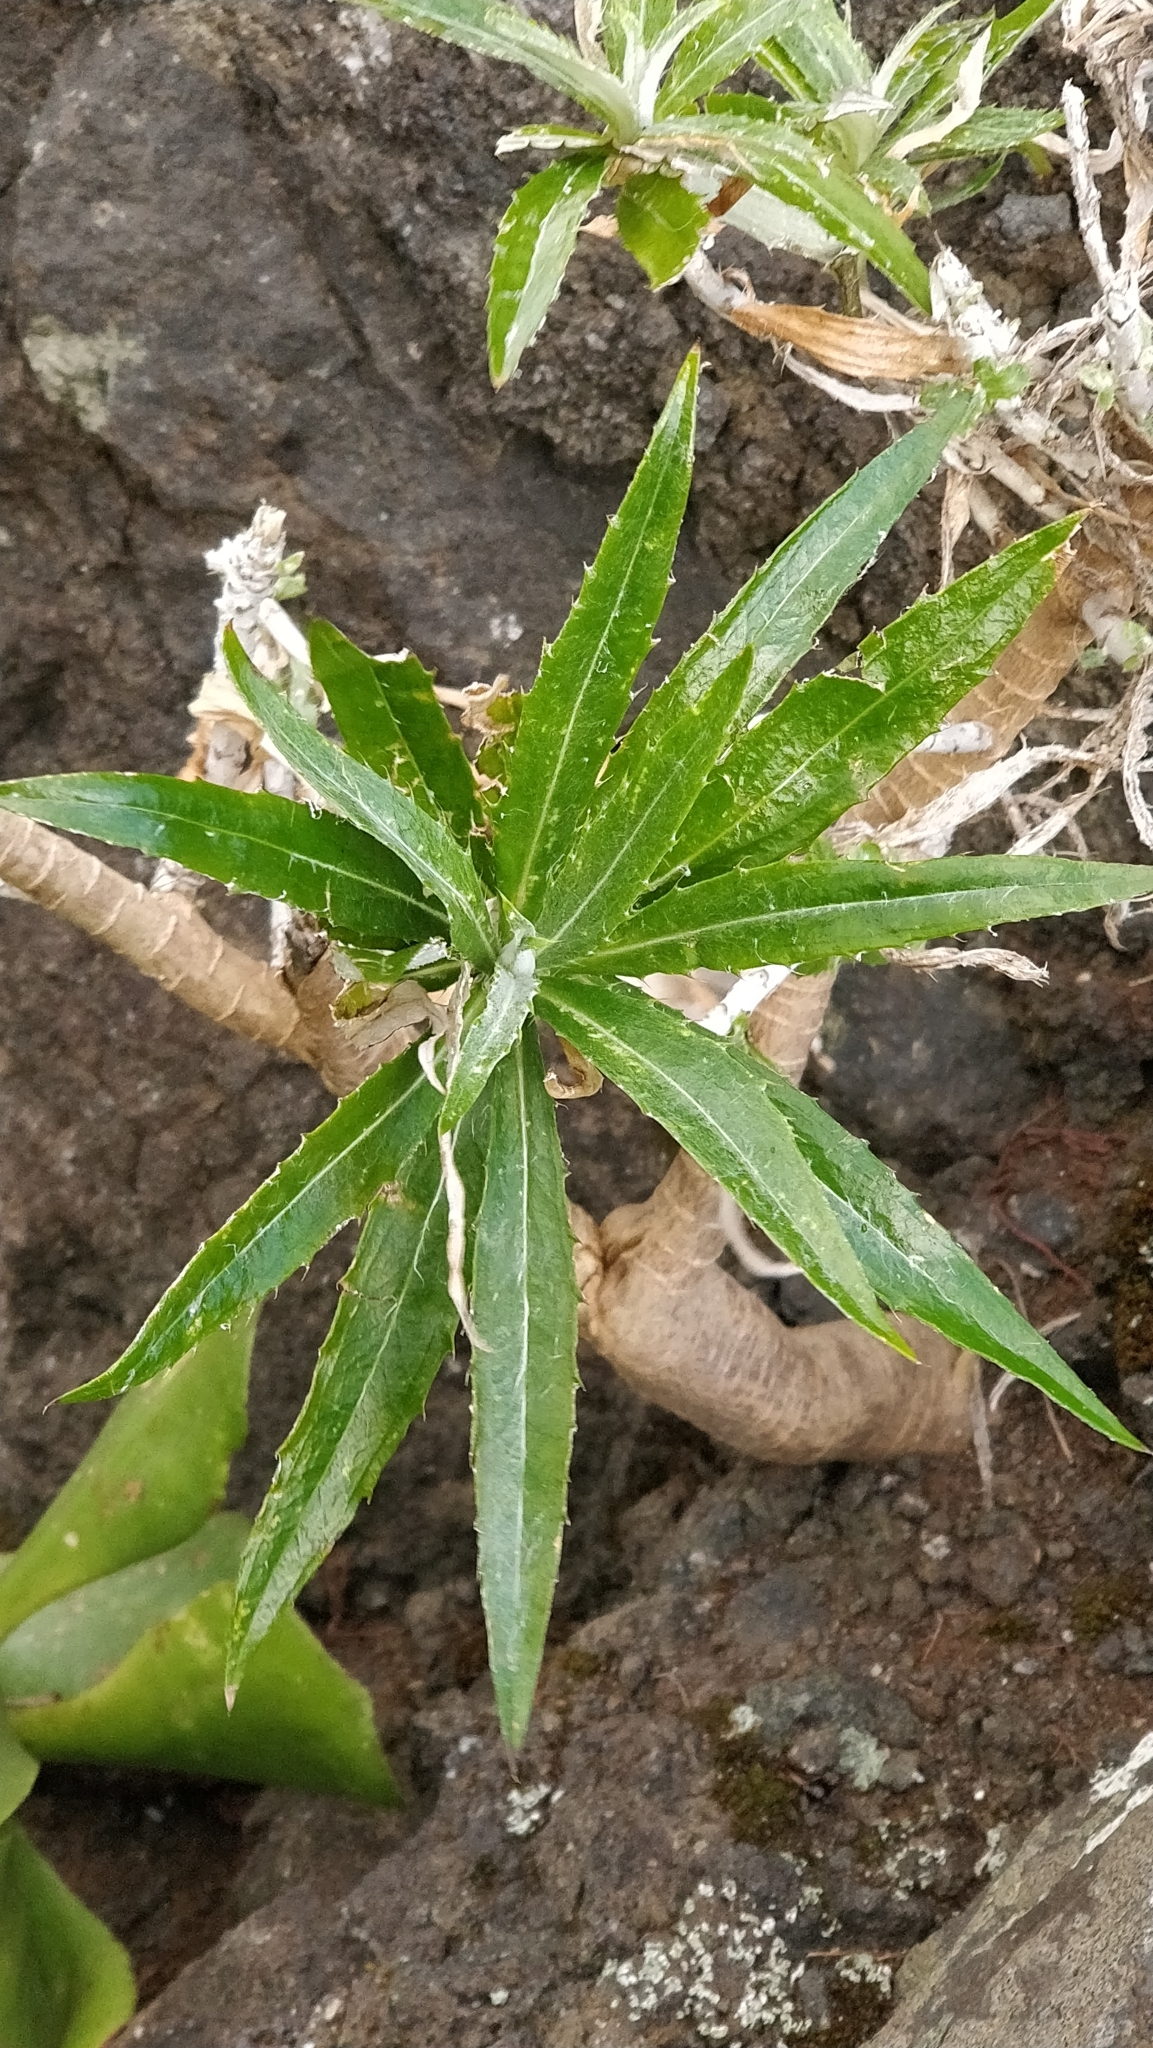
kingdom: Plantae
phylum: Tracheophyta
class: Magnoliopsida
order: Asterales
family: Asteraceae
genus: Carlina
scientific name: Carlina salicifolia
